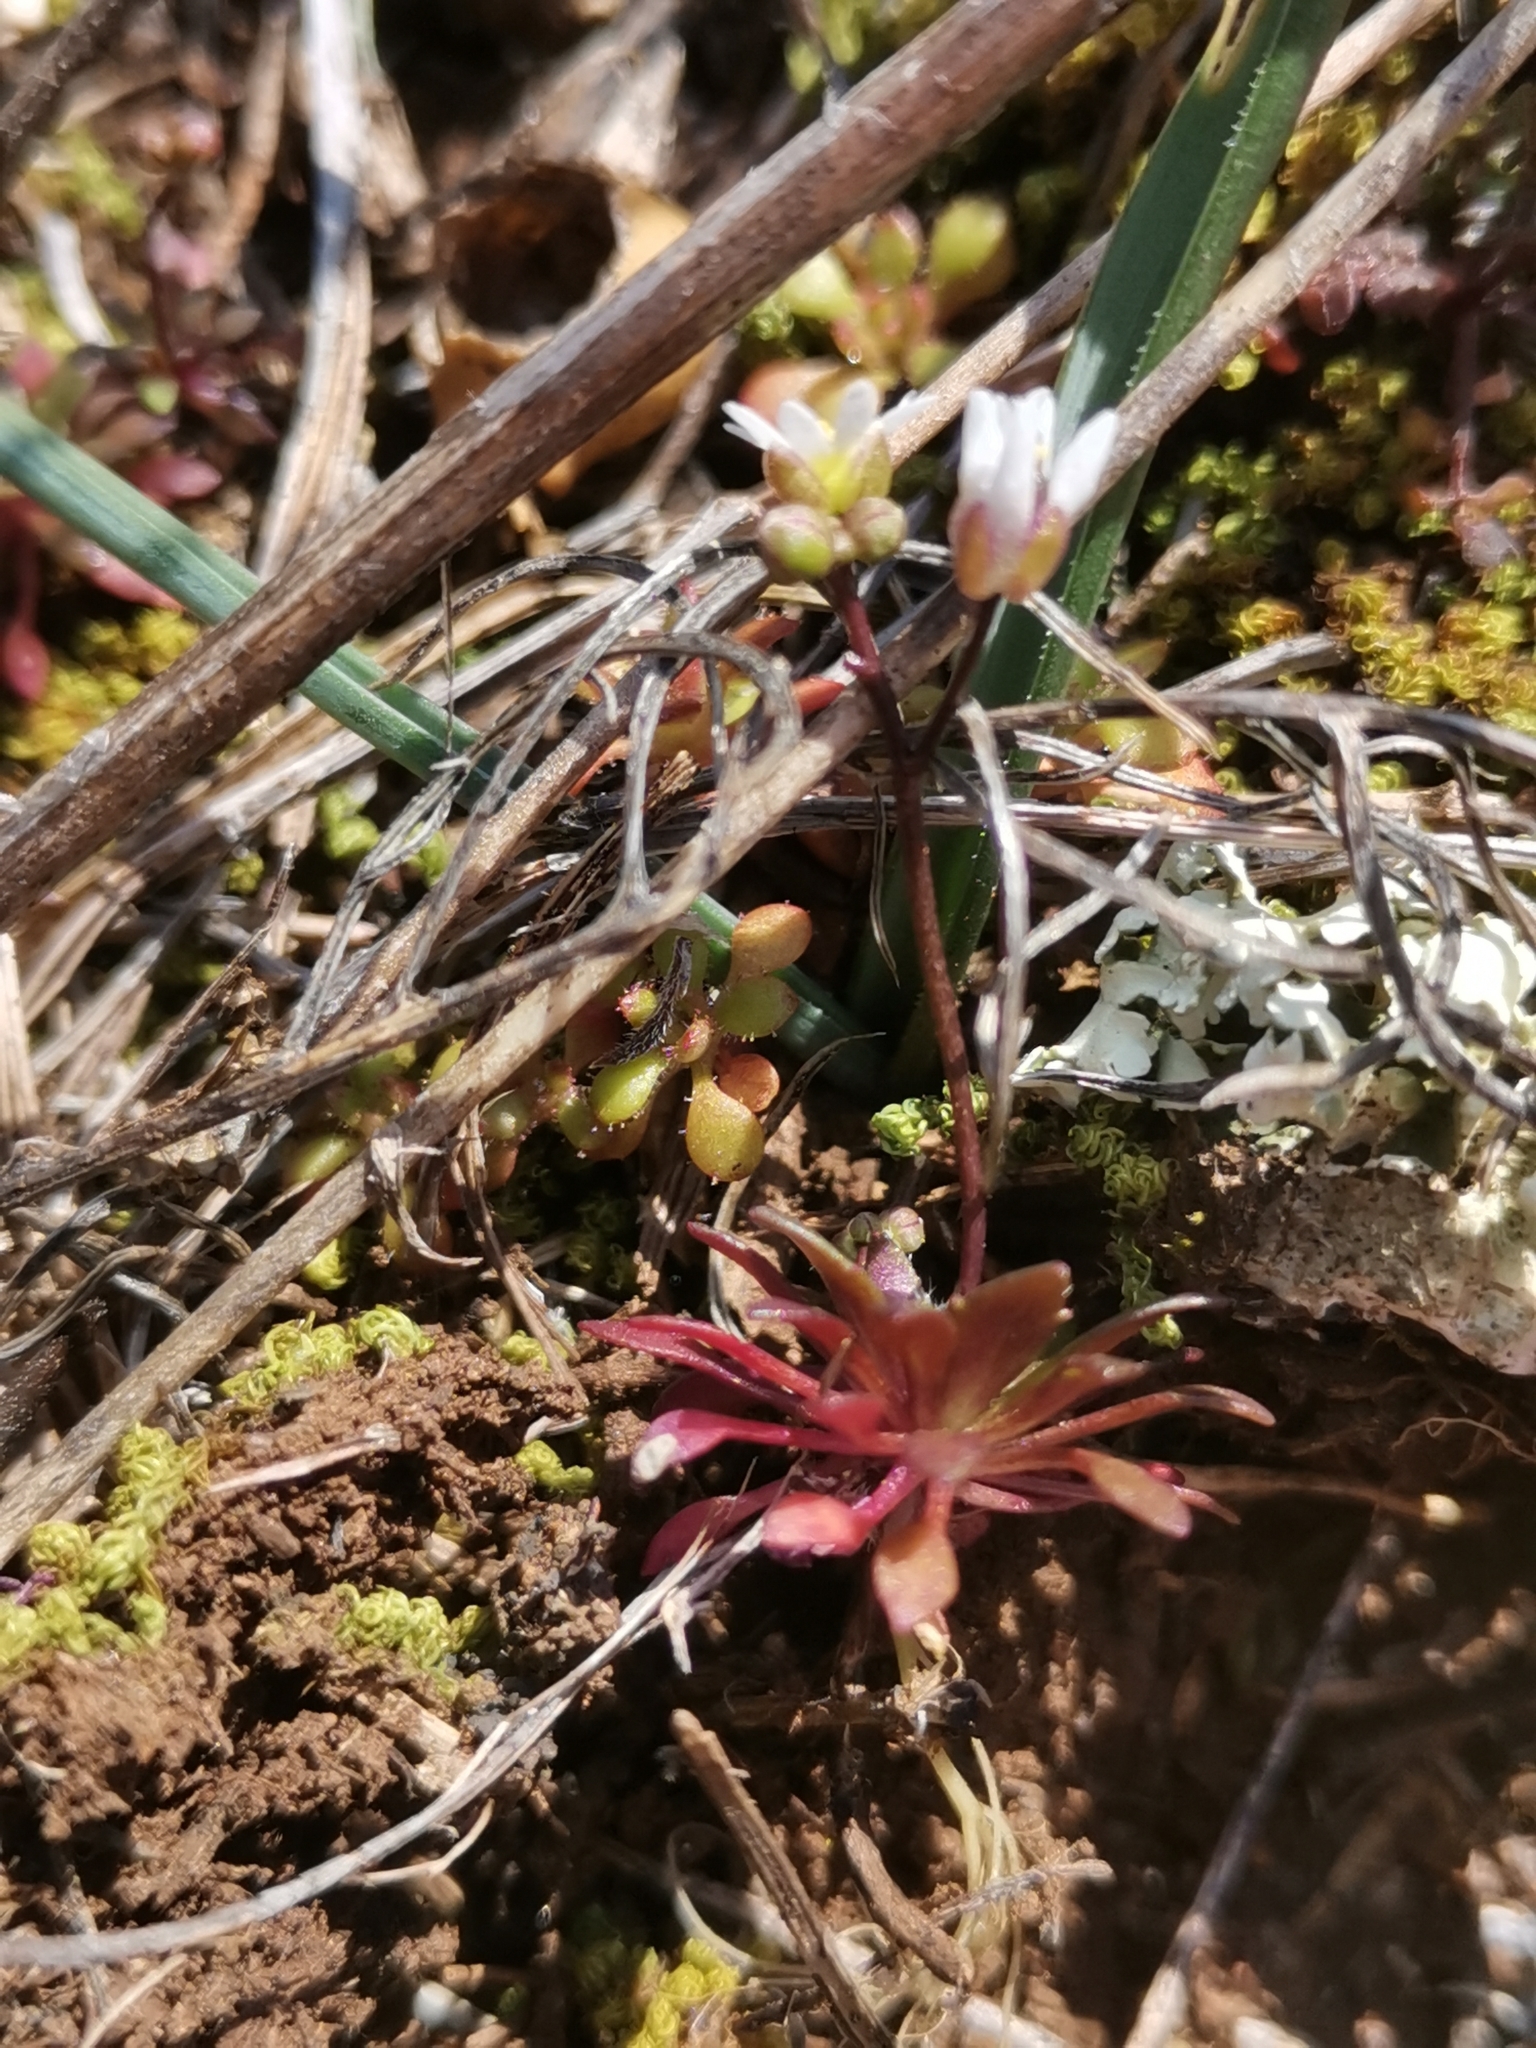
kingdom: Plantae
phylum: Tracheophyta
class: Magnoliopsida
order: Brassicales
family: Brassicaceae
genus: Draba
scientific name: Draba verna
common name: Spring draba
